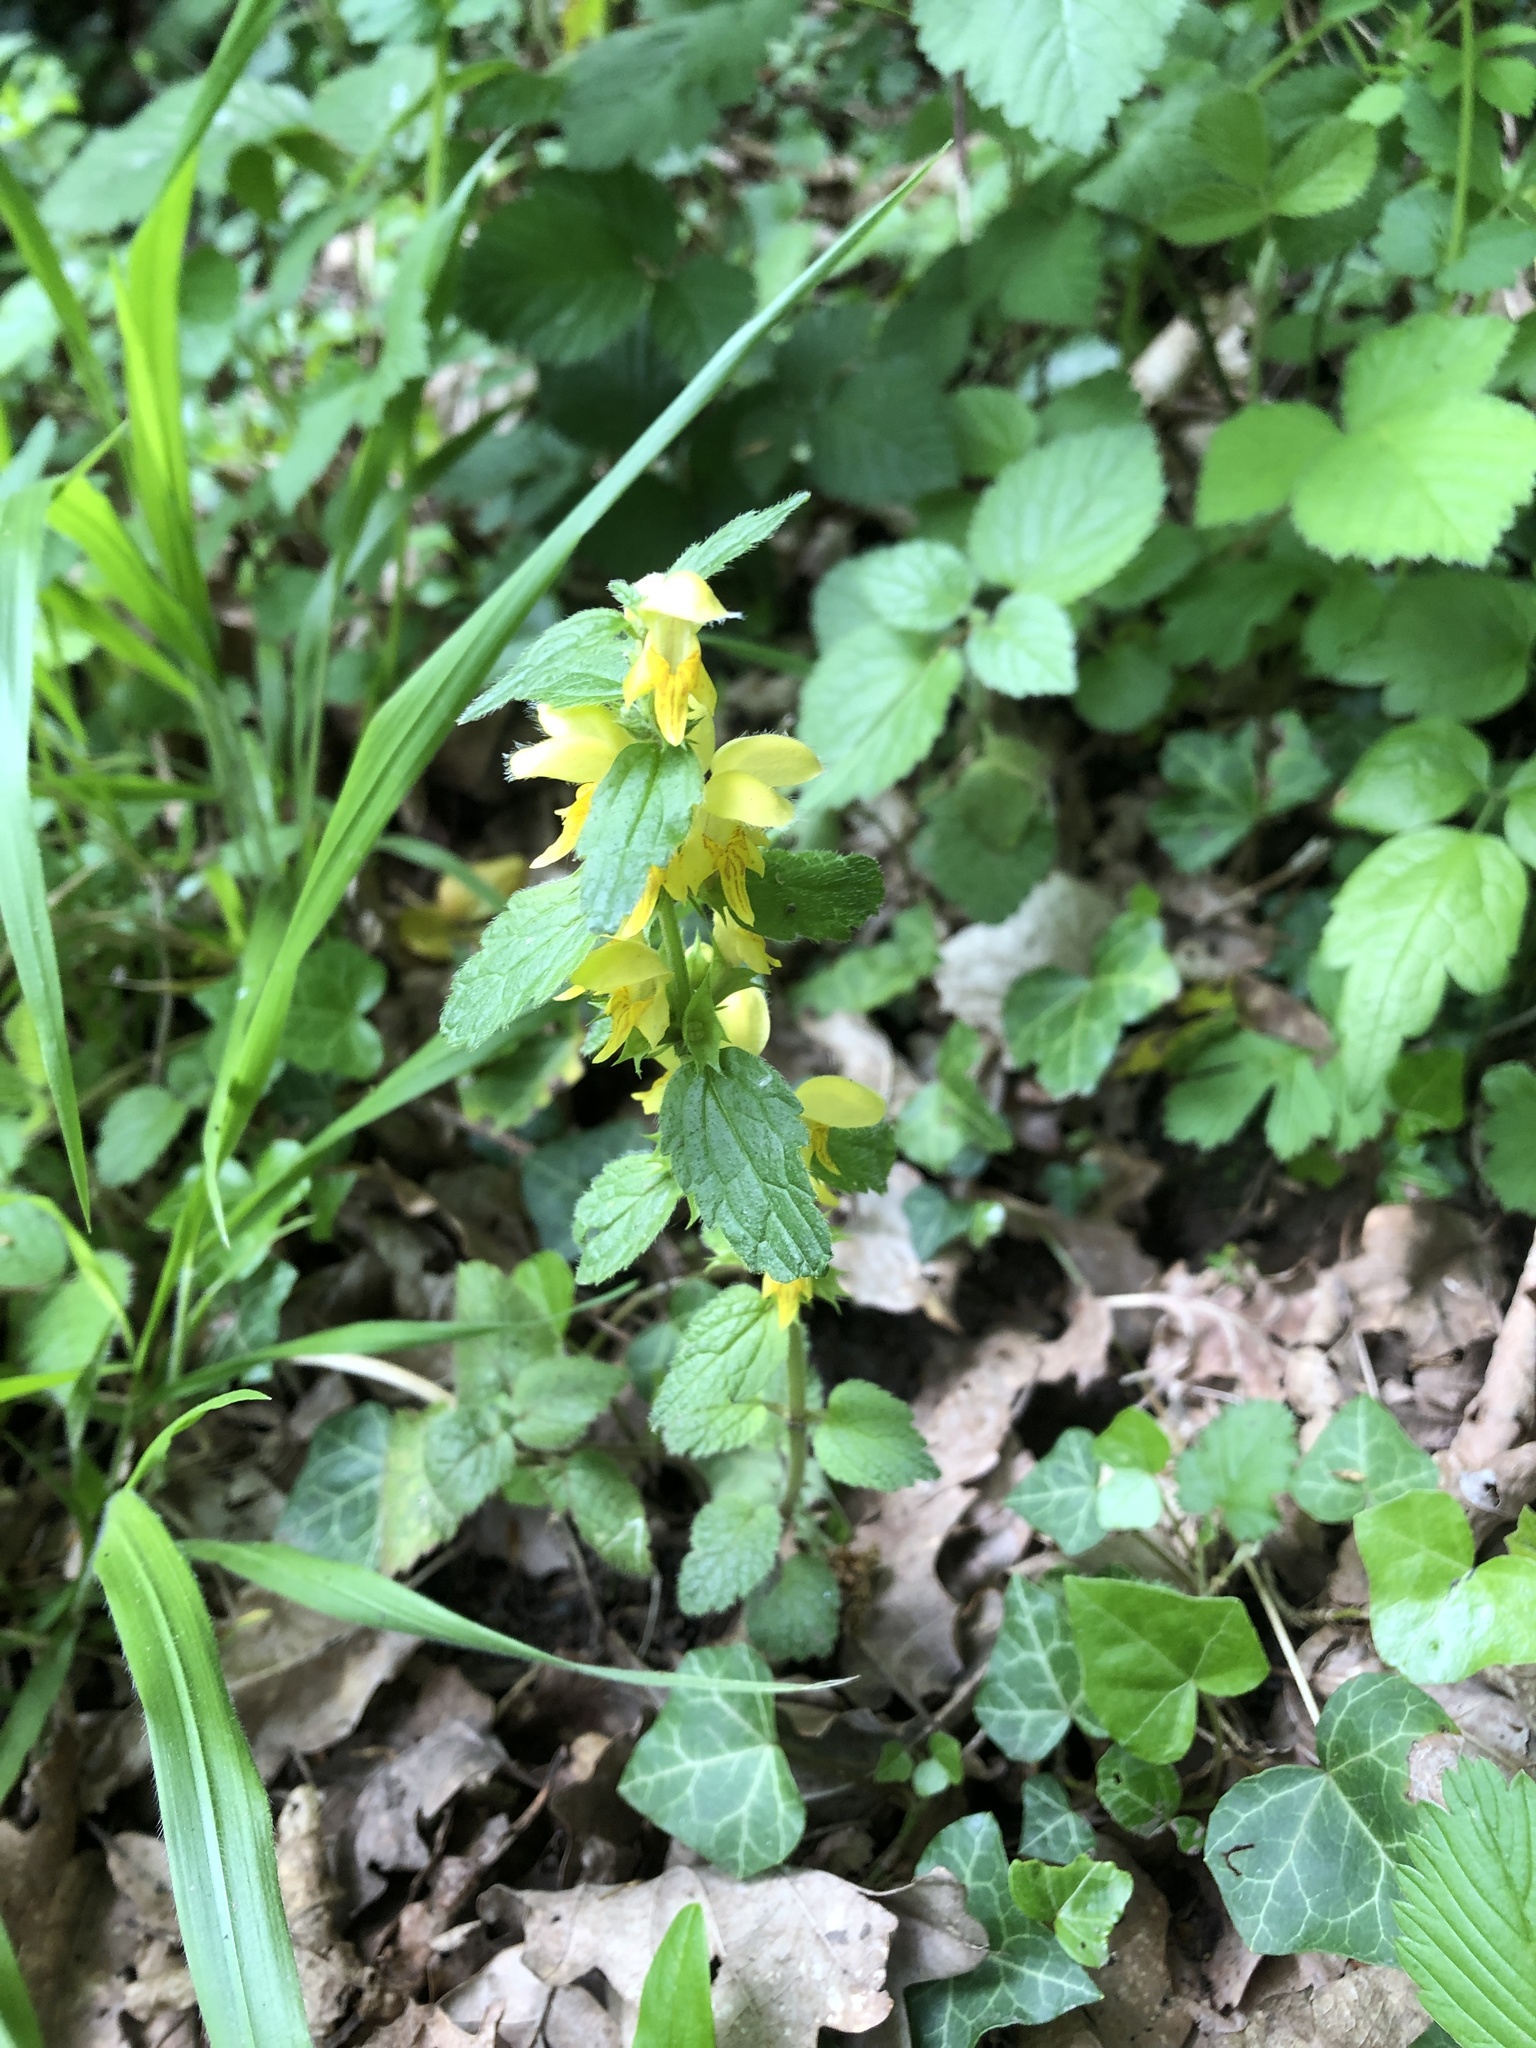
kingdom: Plantae
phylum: Tracheophyta
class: Magnoliopsida
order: Lamiales
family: Lamiaceae
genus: Lamium
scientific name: Lamium galeobdolon
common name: Yellow archangel
